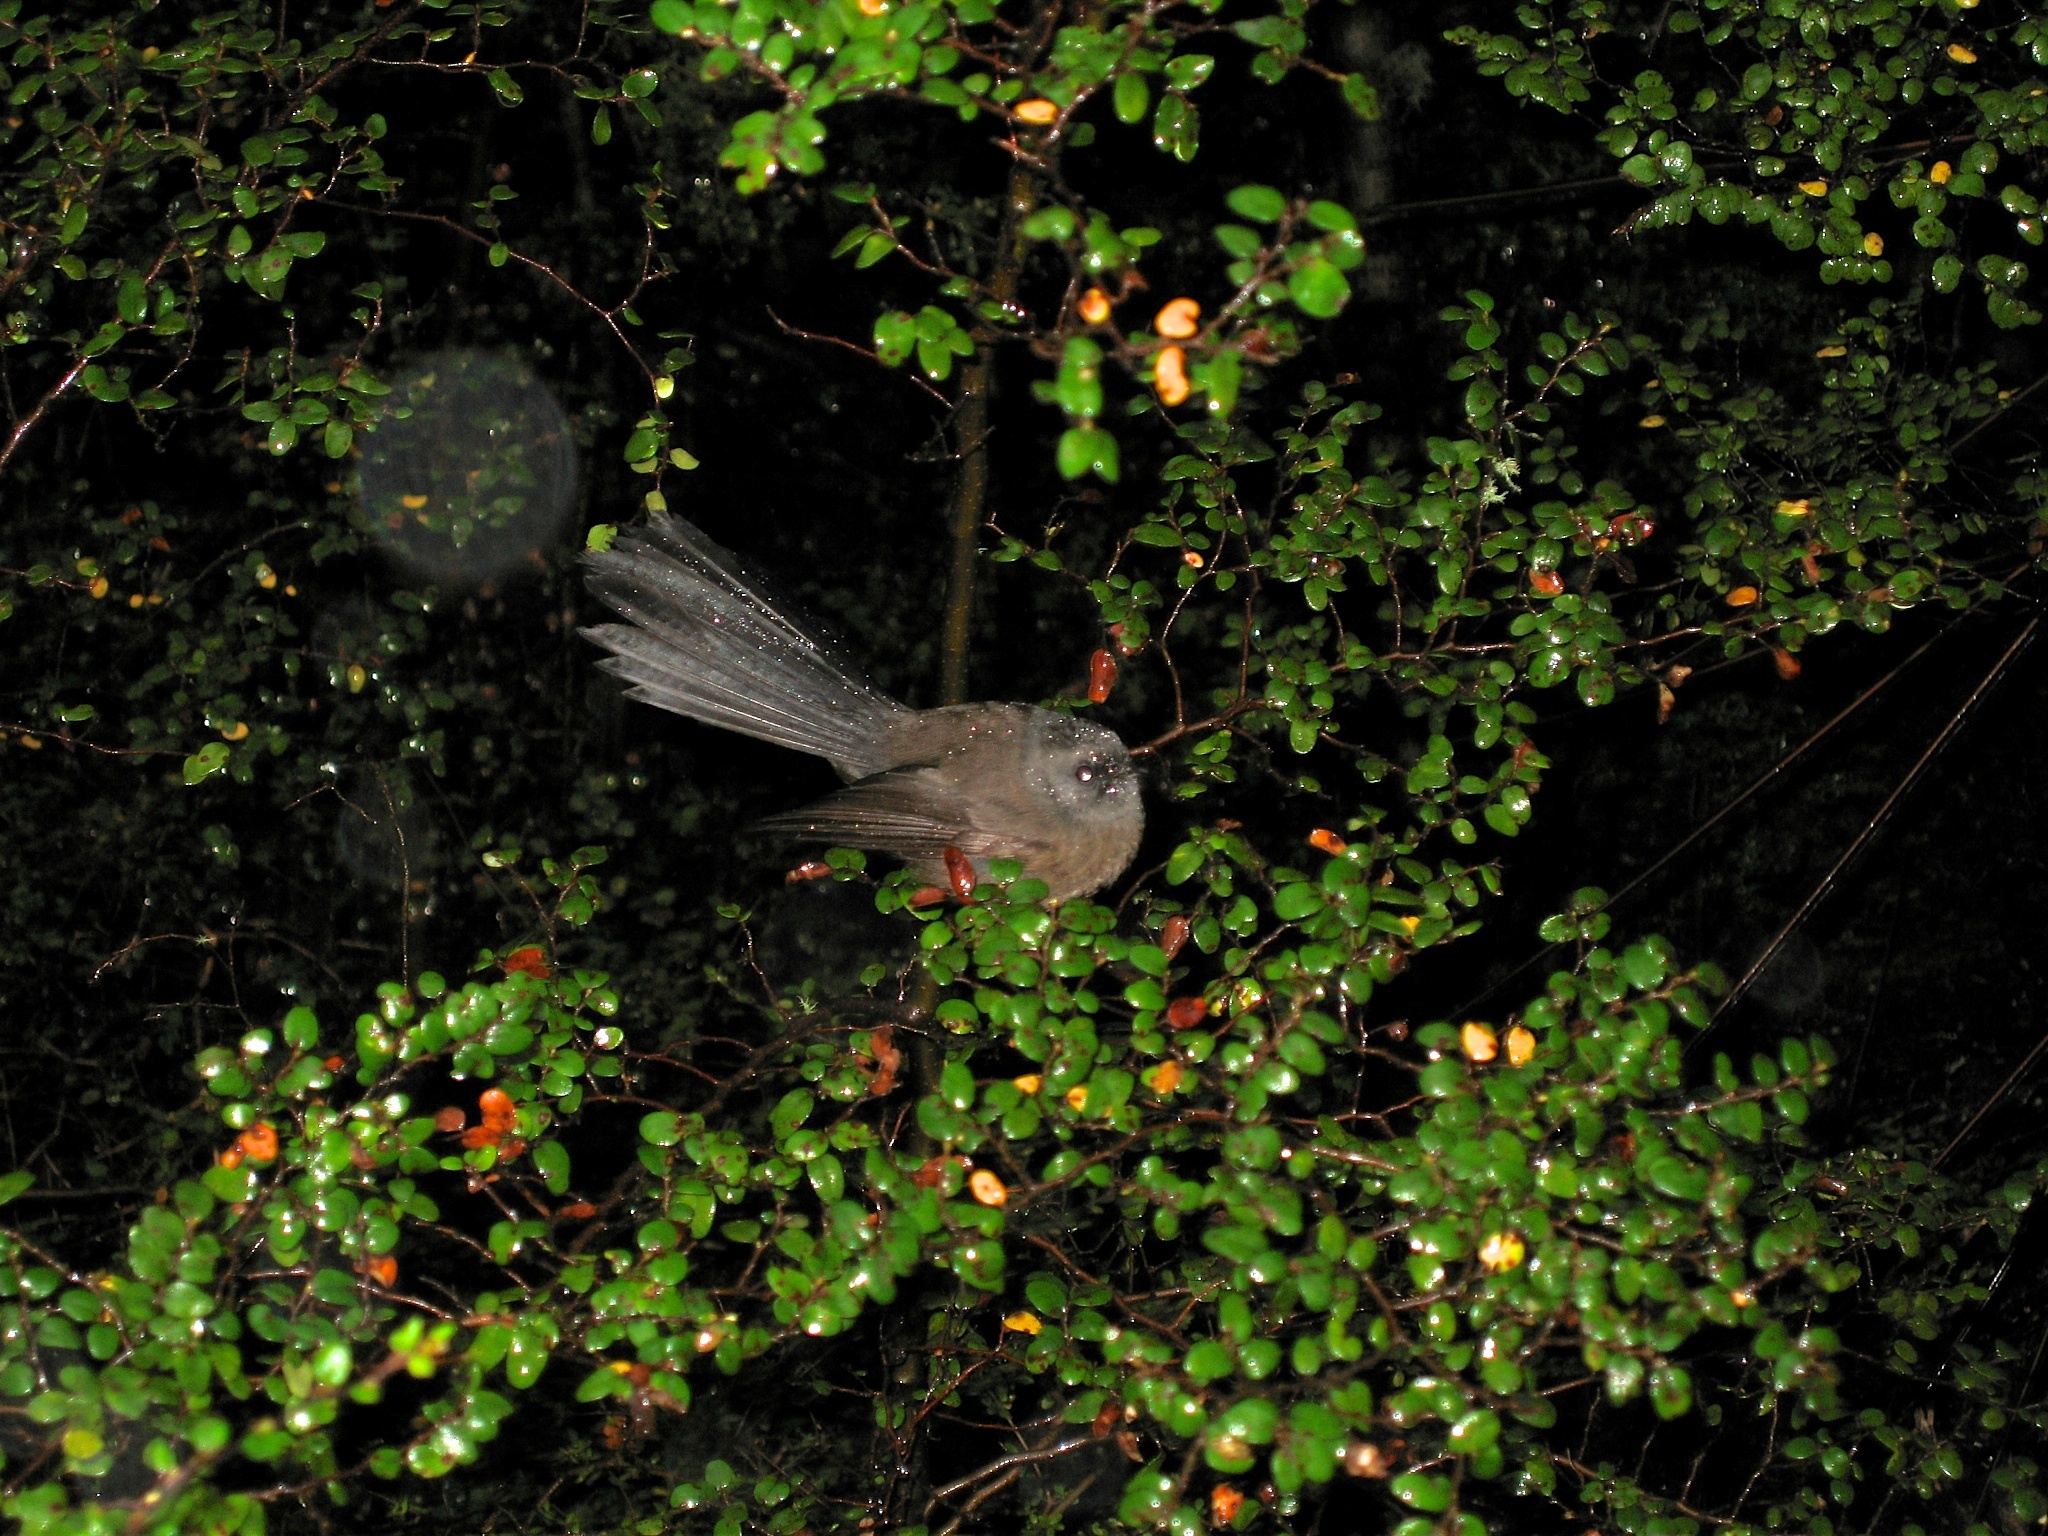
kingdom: Animalia
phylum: Chordata
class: Aves
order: Passeriformes
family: Rhipiduridae
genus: Rhipidura
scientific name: Rhipidura fuliginosa
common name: New zealand fantail
